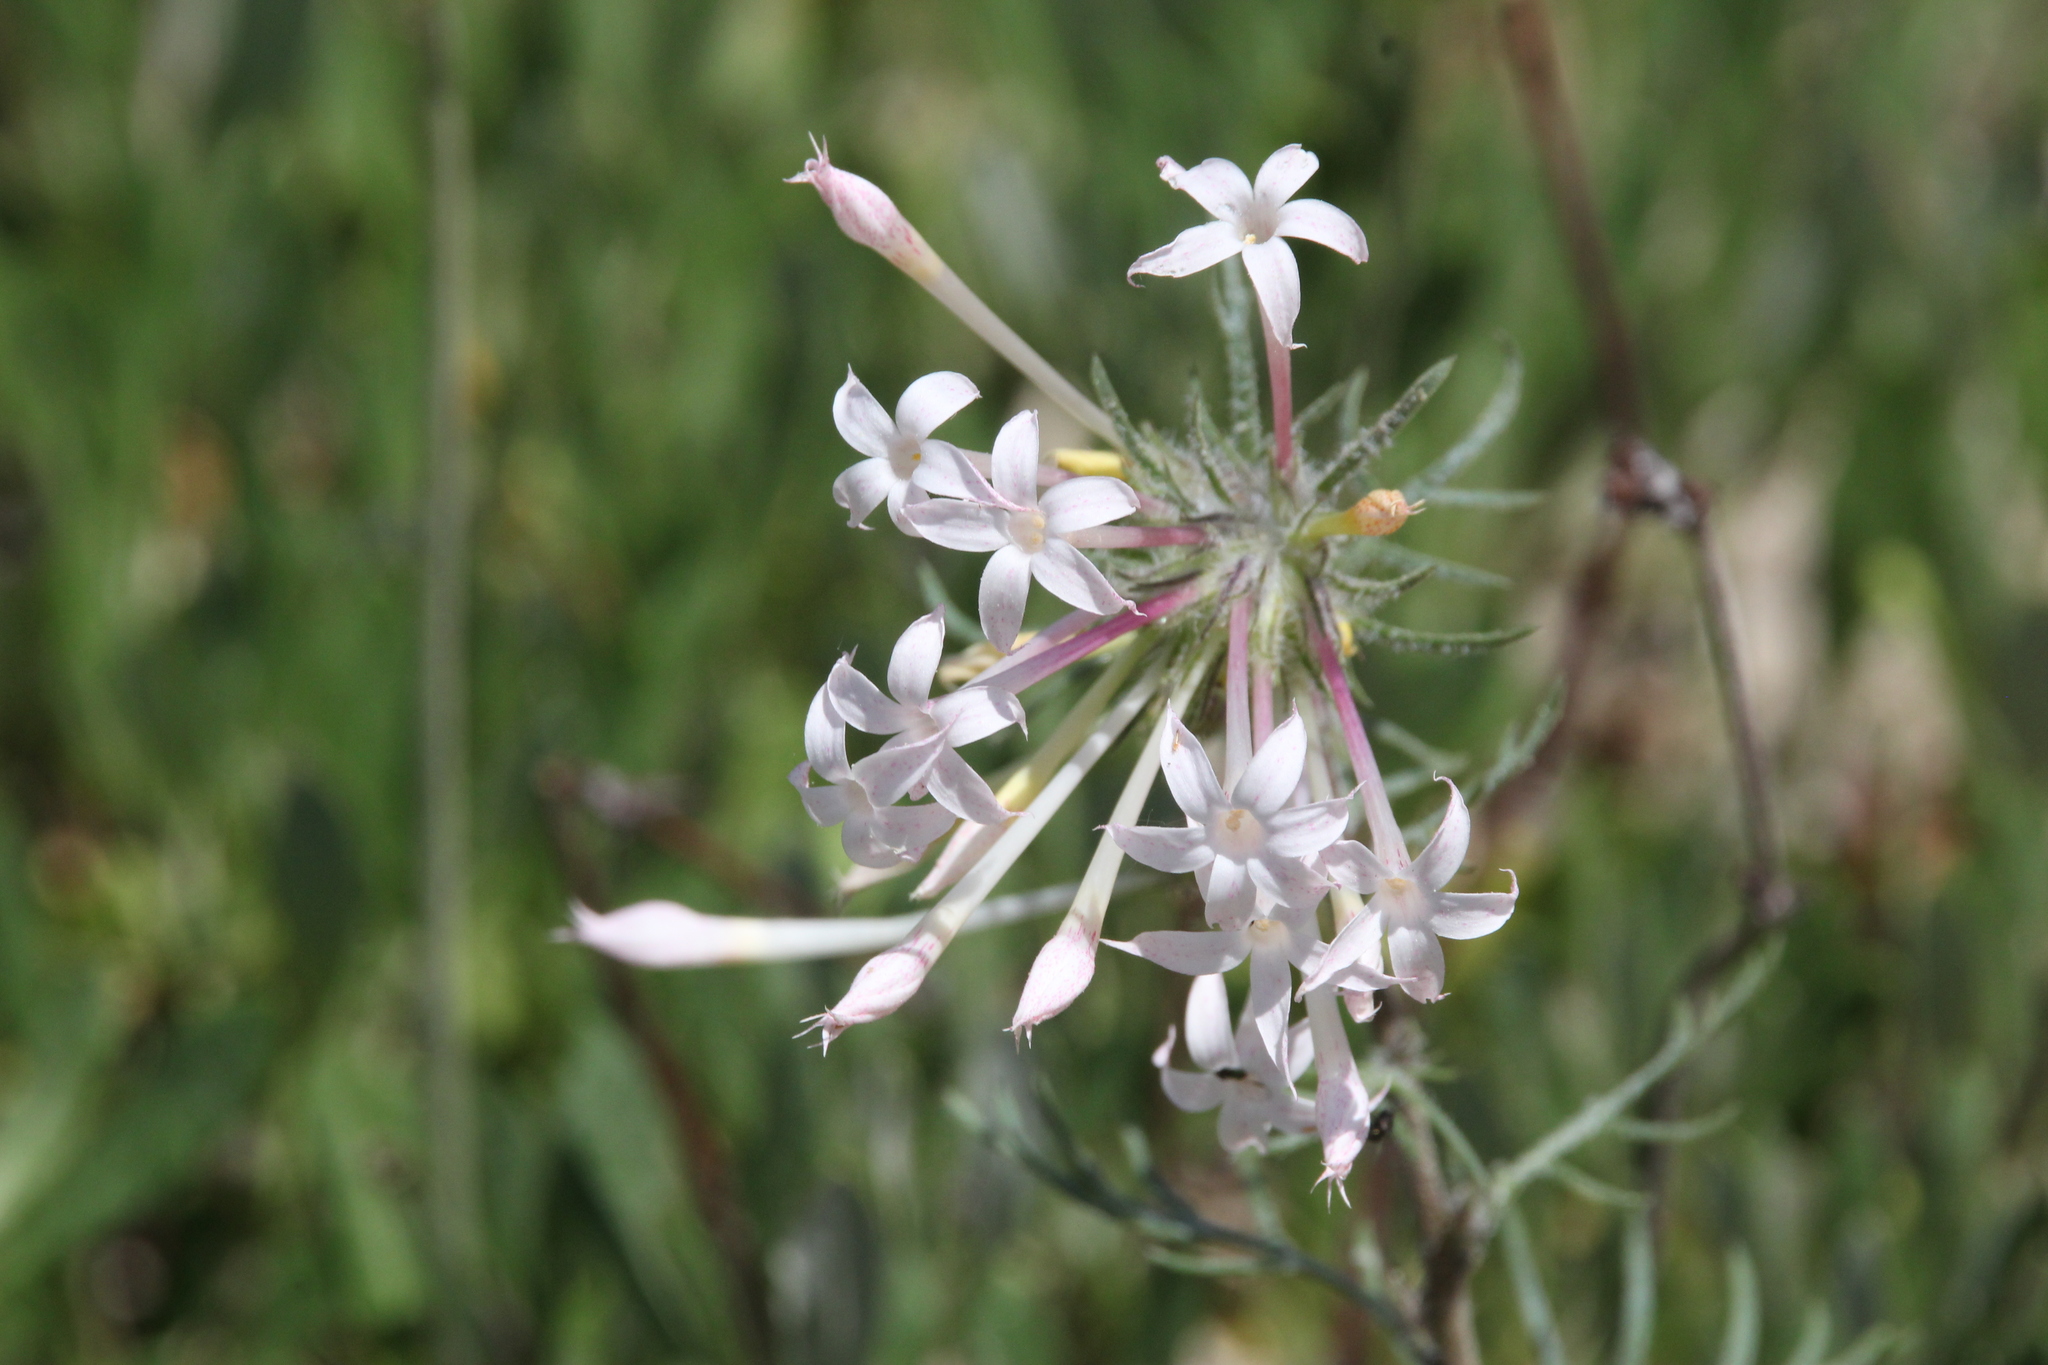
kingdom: Plantae
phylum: Tracheophyta
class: Magnoliopsida
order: Ericales
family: Polemoniaceae
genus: Ipomopsis
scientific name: Ipomopsis tenuituba
